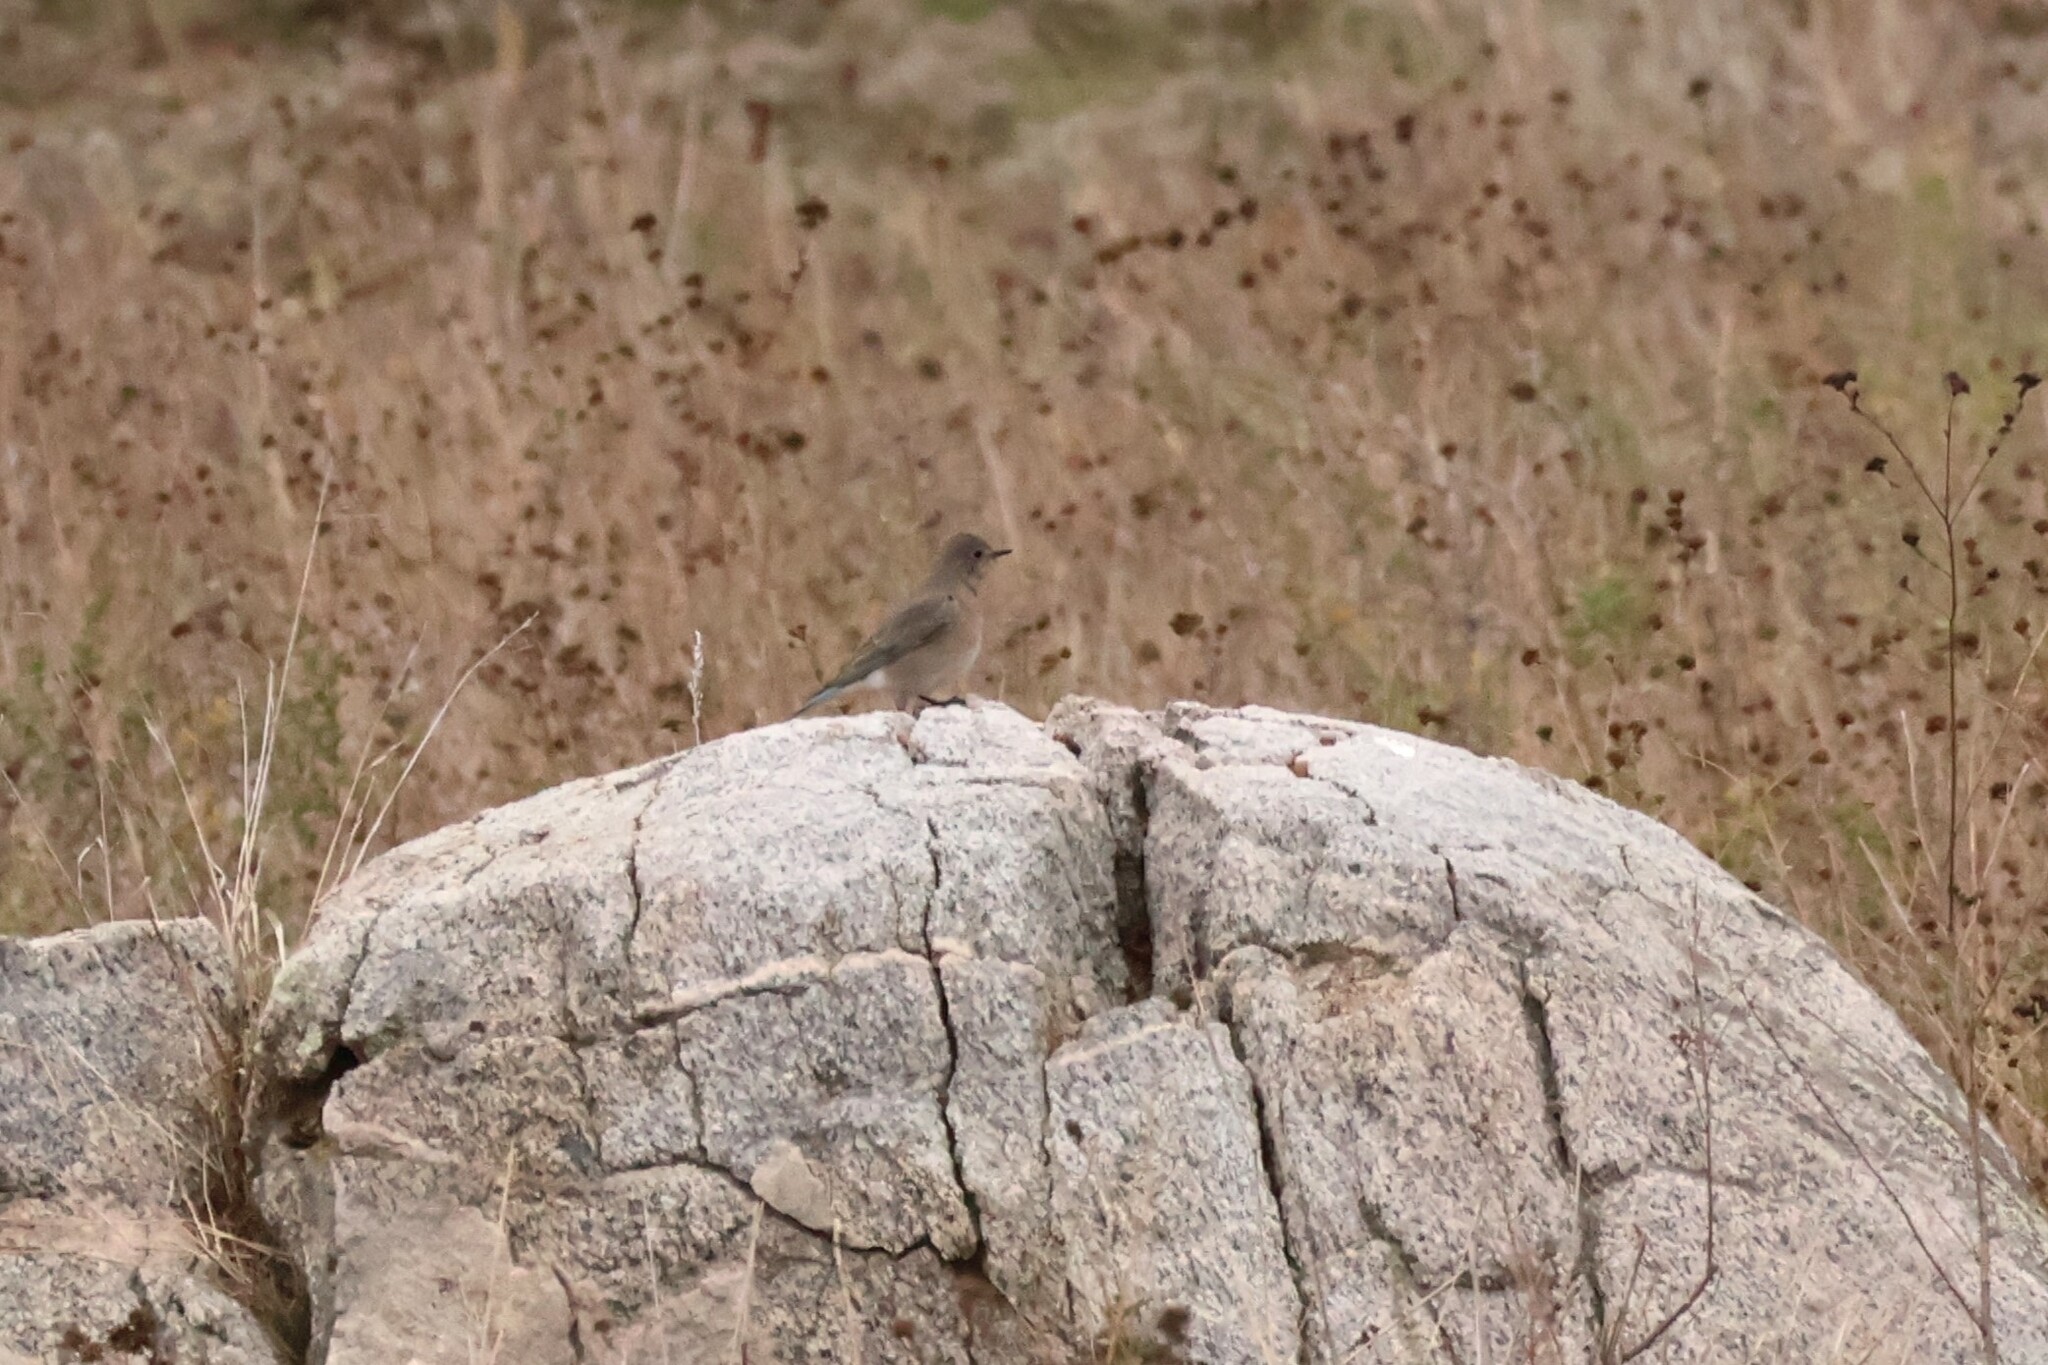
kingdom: Animalia
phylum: Chordata
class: Aves
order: Passeriformes
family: Turdidae
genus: Sialia
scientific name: Sialia currucoides
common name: Mountain bluebird
